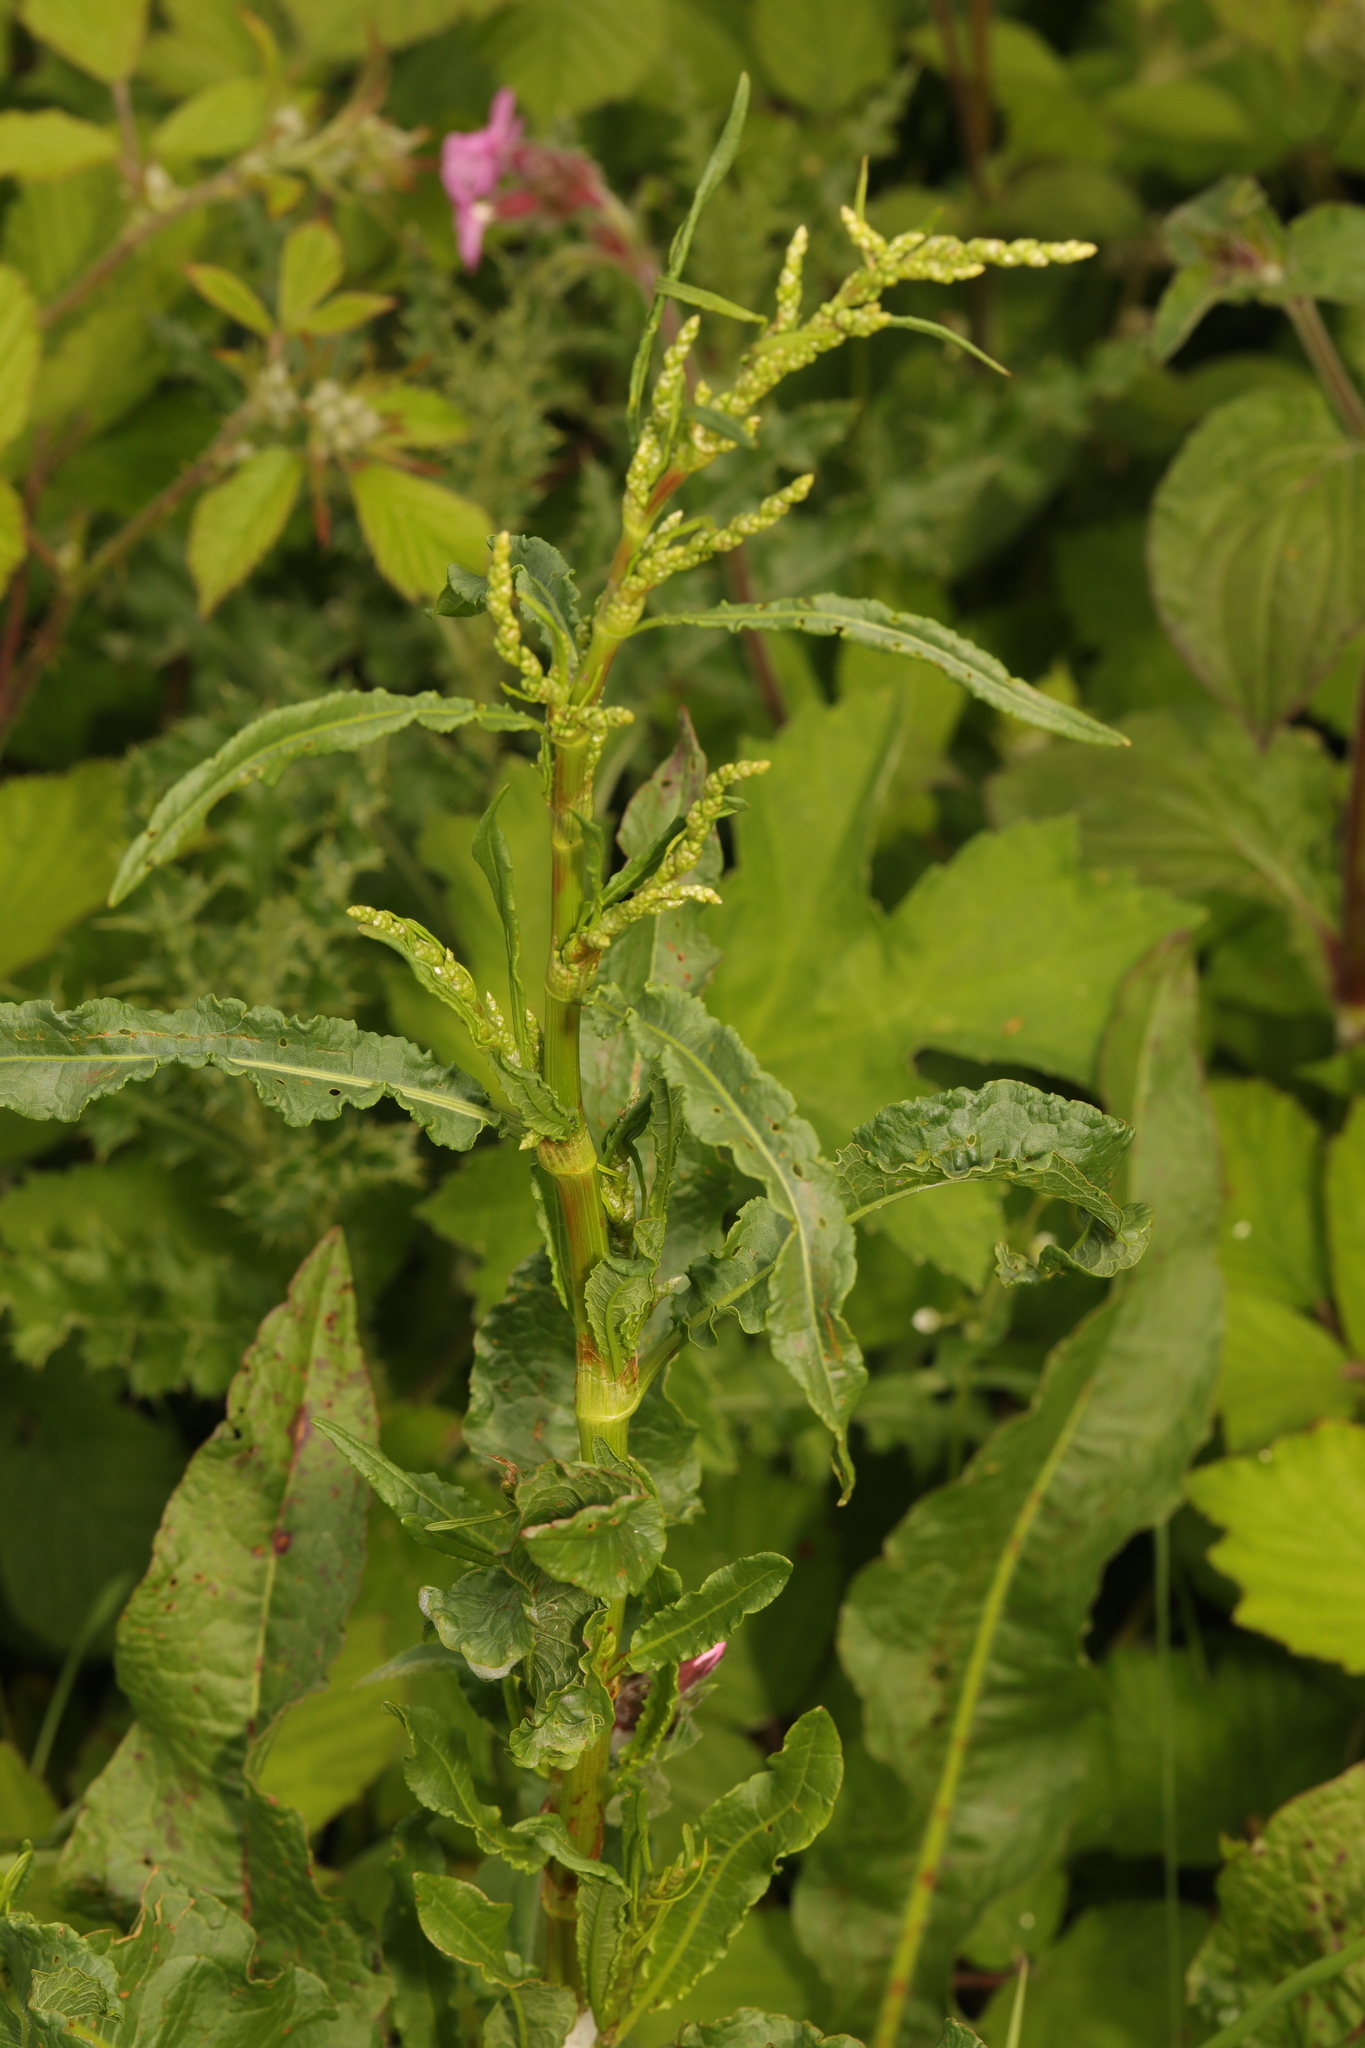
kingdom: Plantae
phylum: Tracheophyta
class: Magnoliopsida
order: Caryophyllales
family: Polygonaceae
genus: Rumex
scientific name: Rumex crispus
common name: Curled dock
